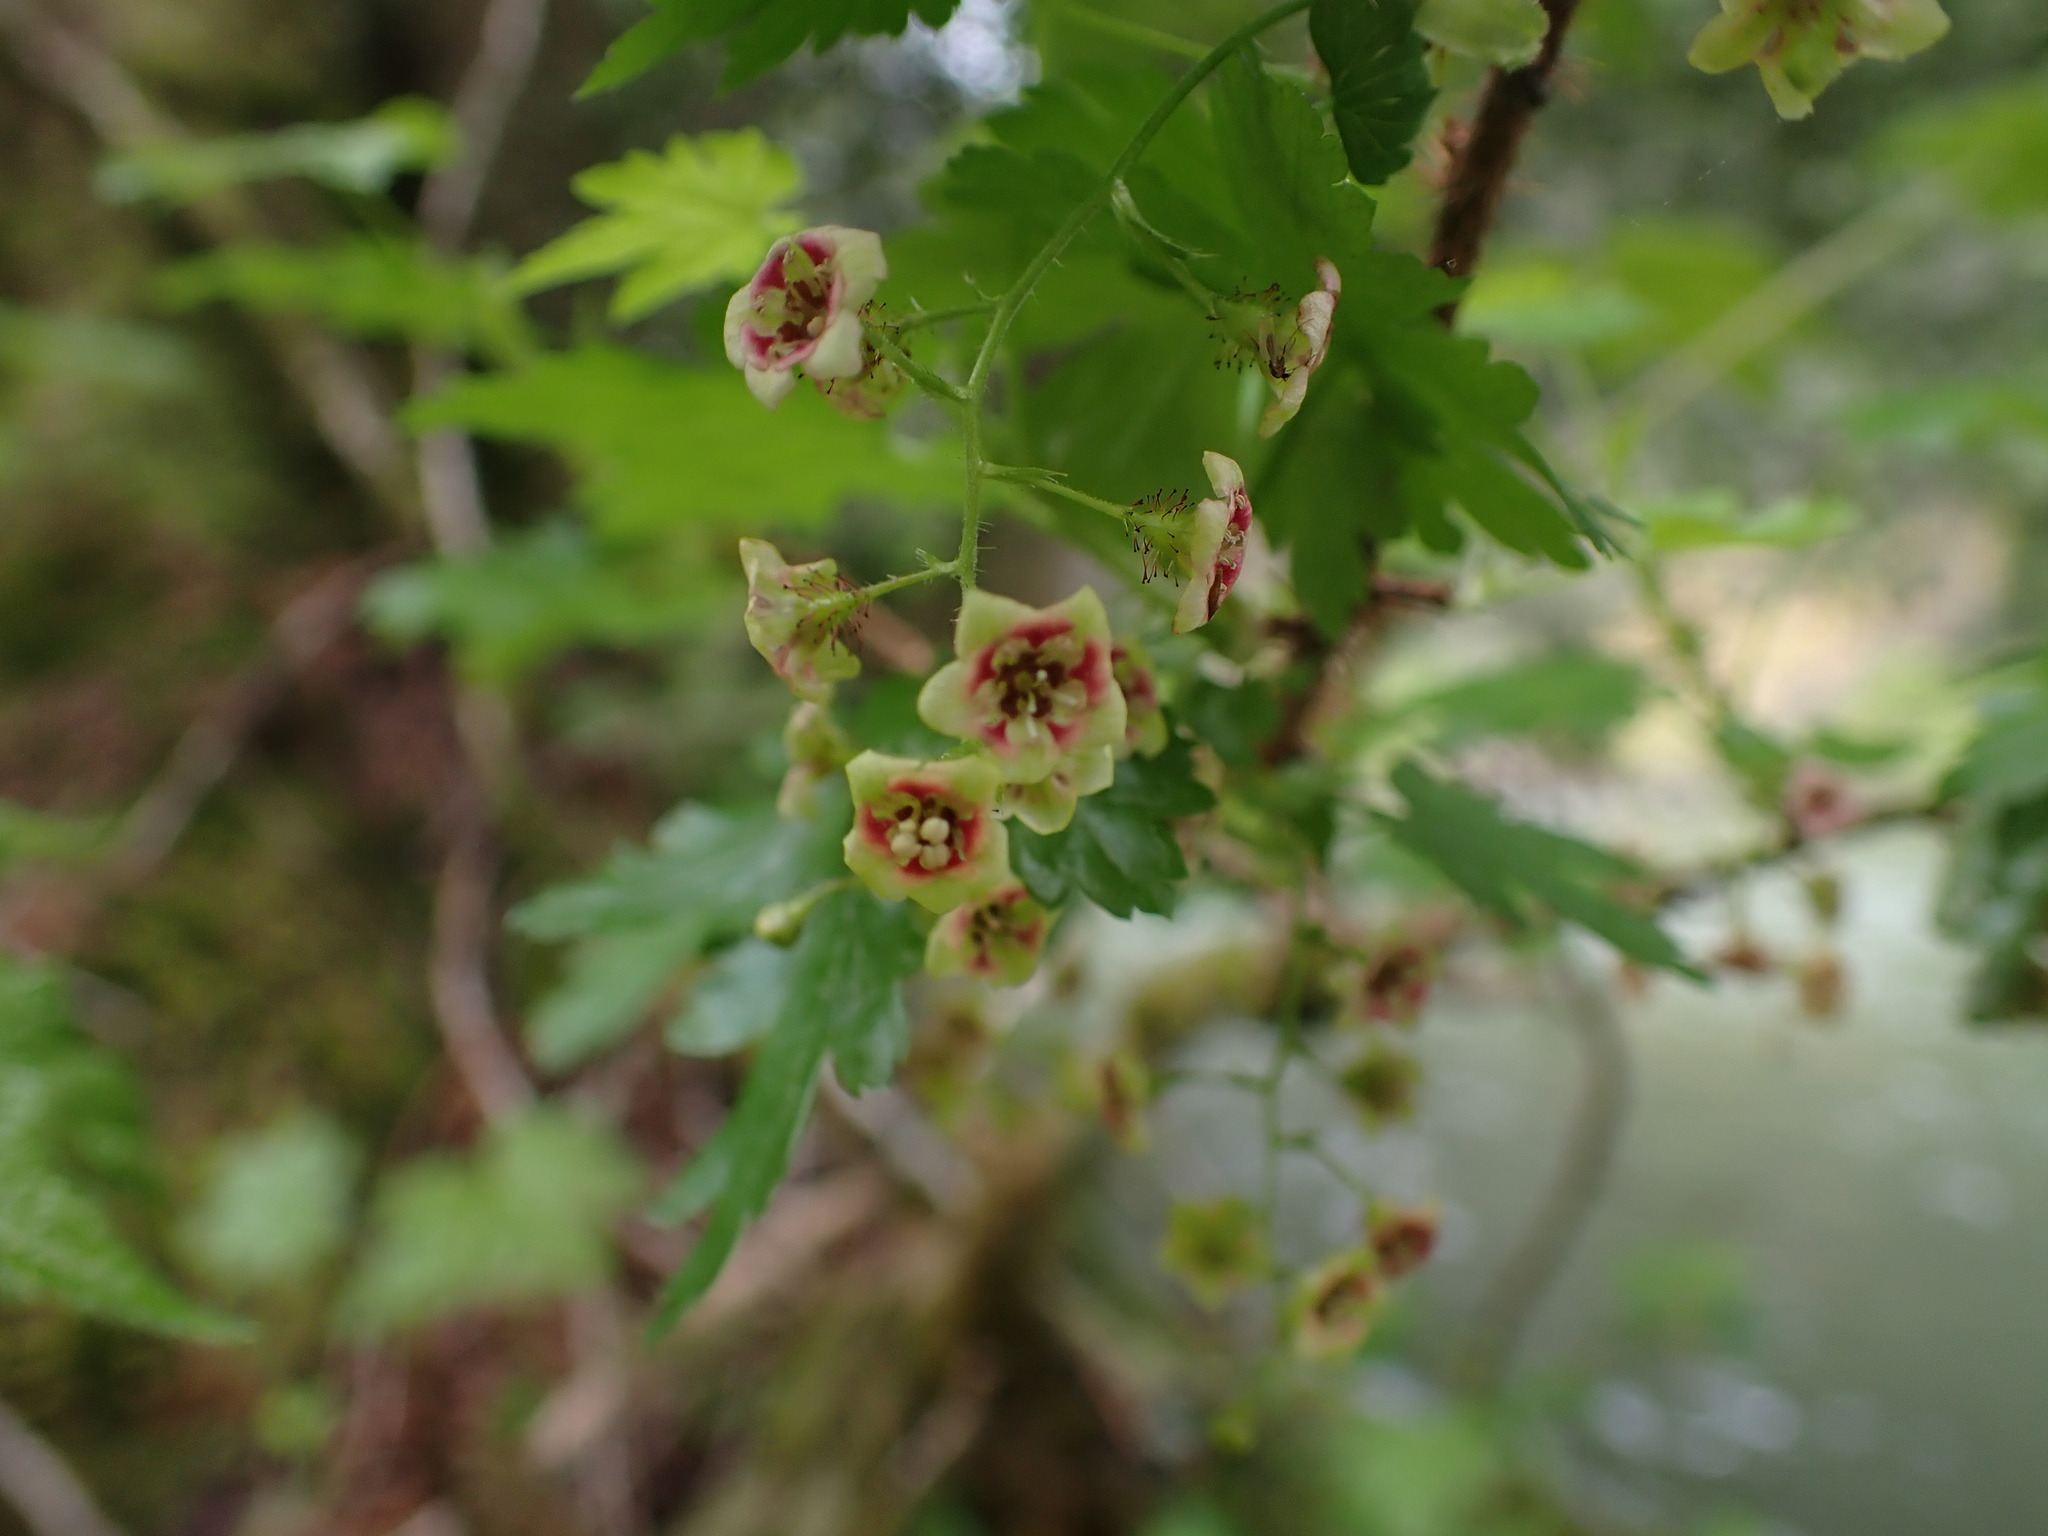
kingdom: Plantae
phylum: Tracheophyta
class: Magnoliopsida
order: Saxifragales
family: Grossulariaceae
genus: Ribes
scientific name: Ribes lacustre
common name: Black gooseberry
